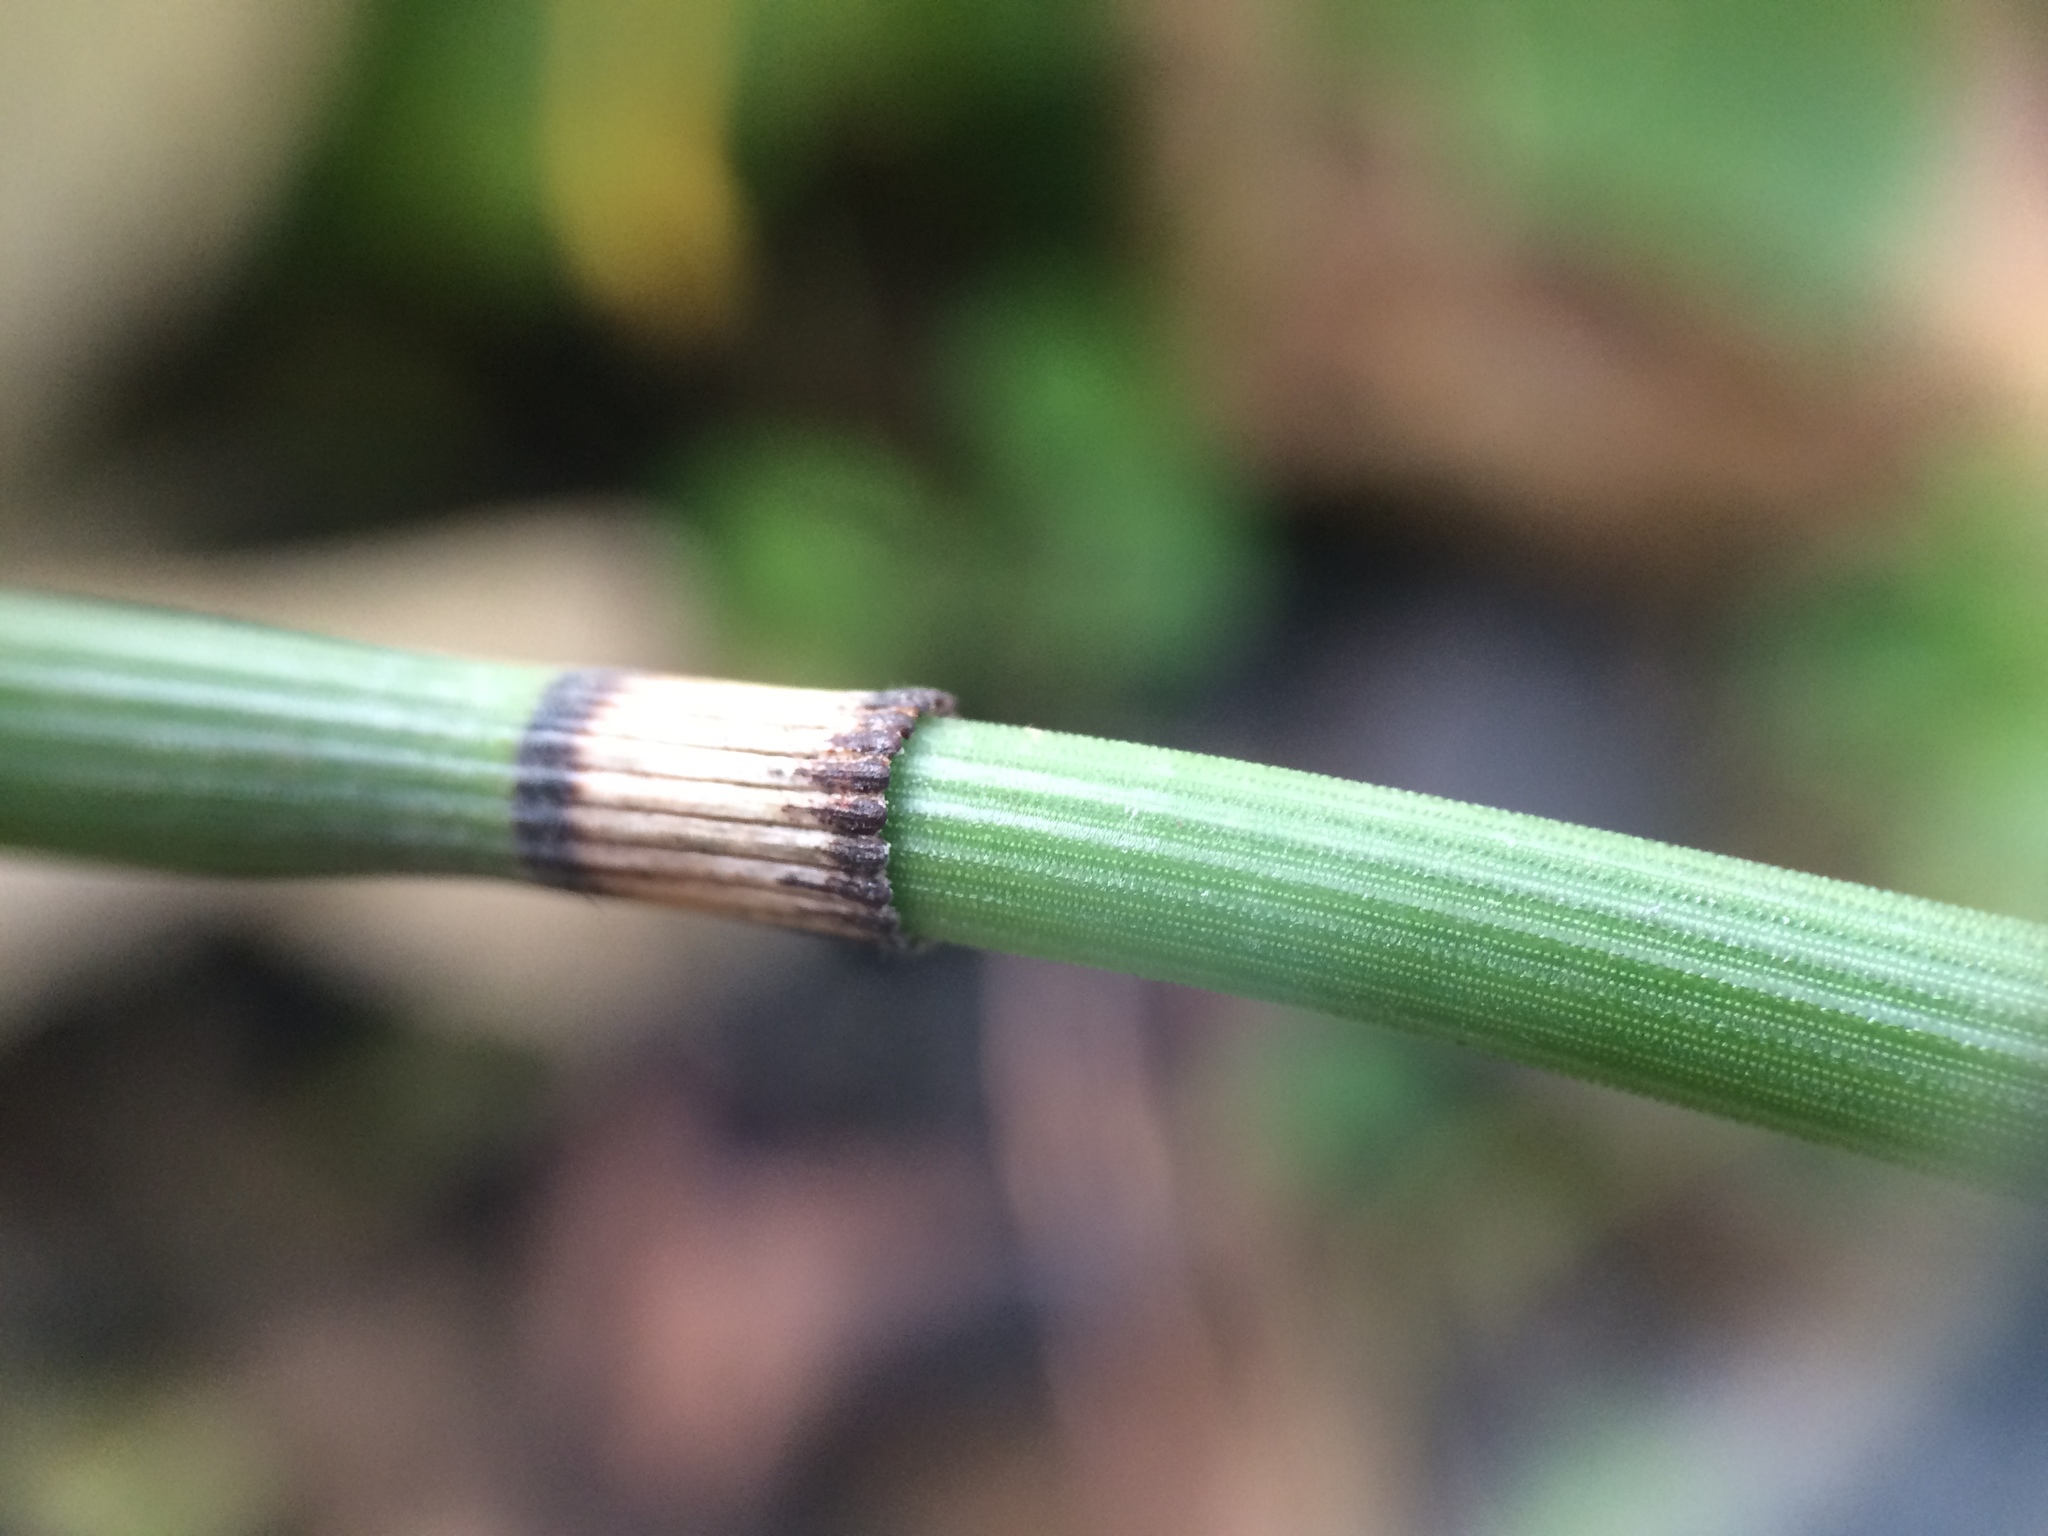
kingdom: Plantae
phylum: Tracheophyta
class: Polypodiopsida
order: Equisetales
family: Equisetaceae
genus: Equisetum
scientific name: Equisetum hyemale
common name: Rough horsetail
